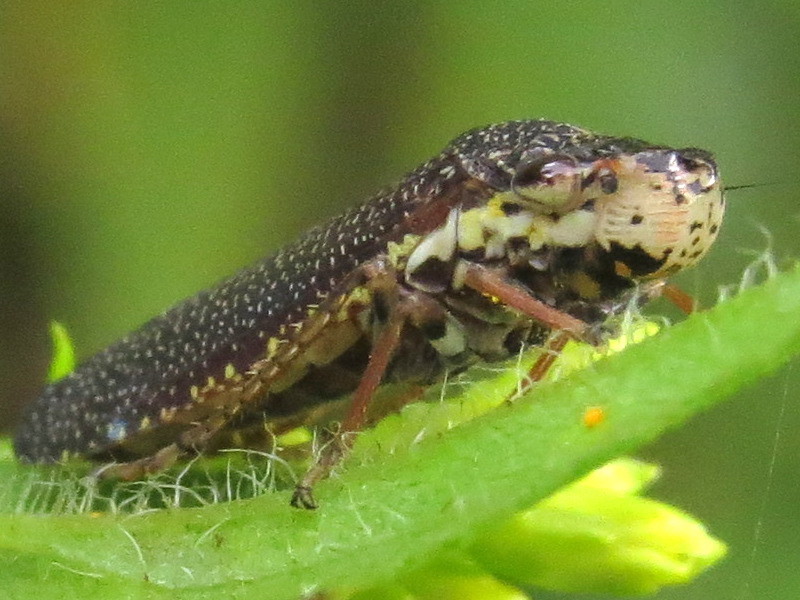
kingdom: Animalia
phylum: Arthropoda
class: Insecta
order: Hemiptera
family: Cicadellidae
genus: Paraulacizes
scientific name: Paraulacizes irrorata
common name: Speckled sharpshooter
